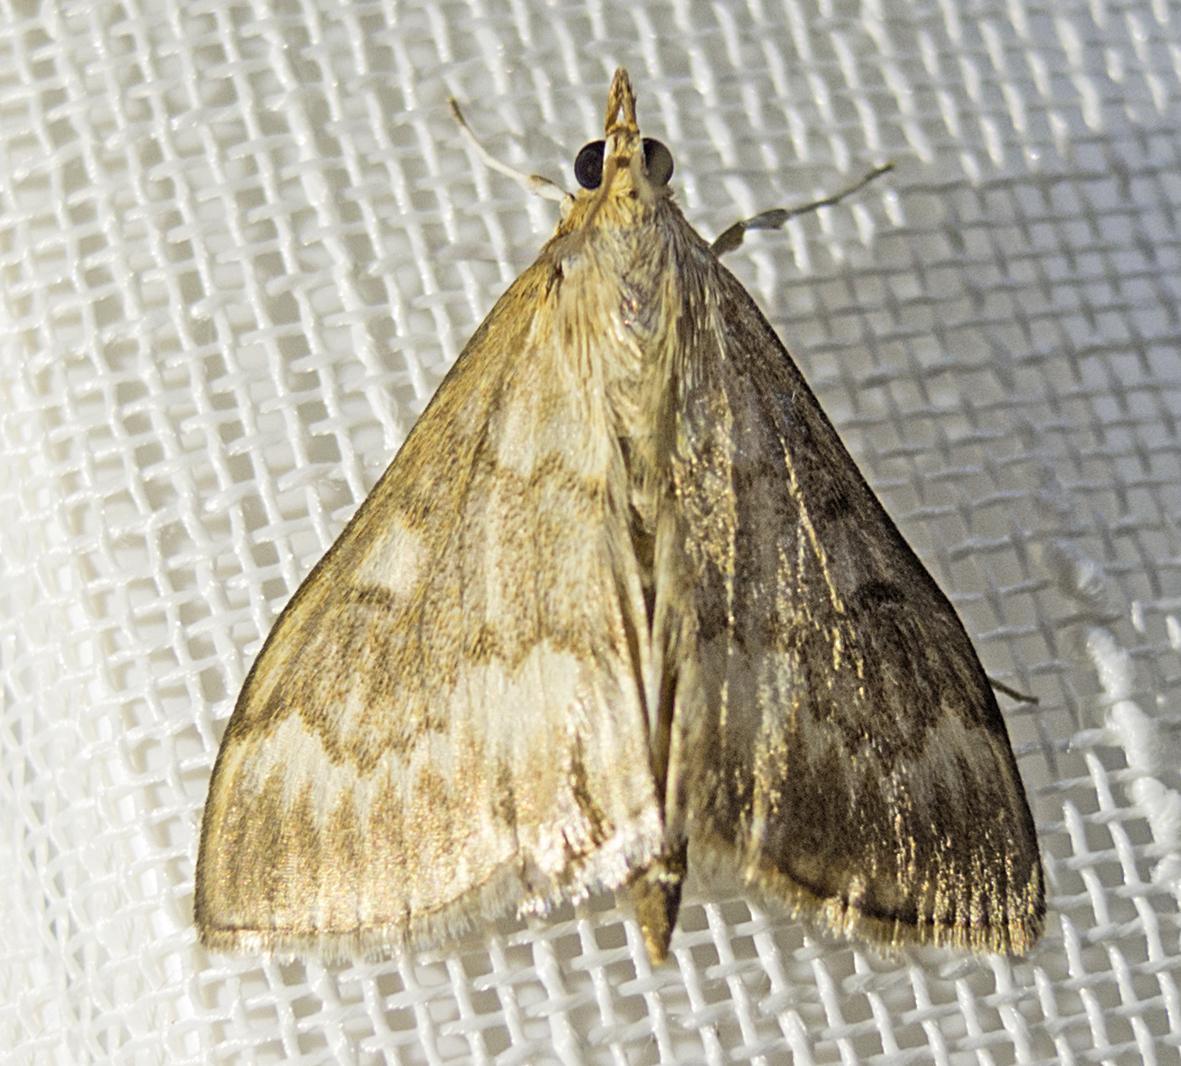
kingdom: Animalia
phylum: Arthropoda
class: Insecta
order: Lepidoptera
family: Crambidae
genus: Ostrinia
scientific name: Ostrinia nubilalis
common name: European corn borer
